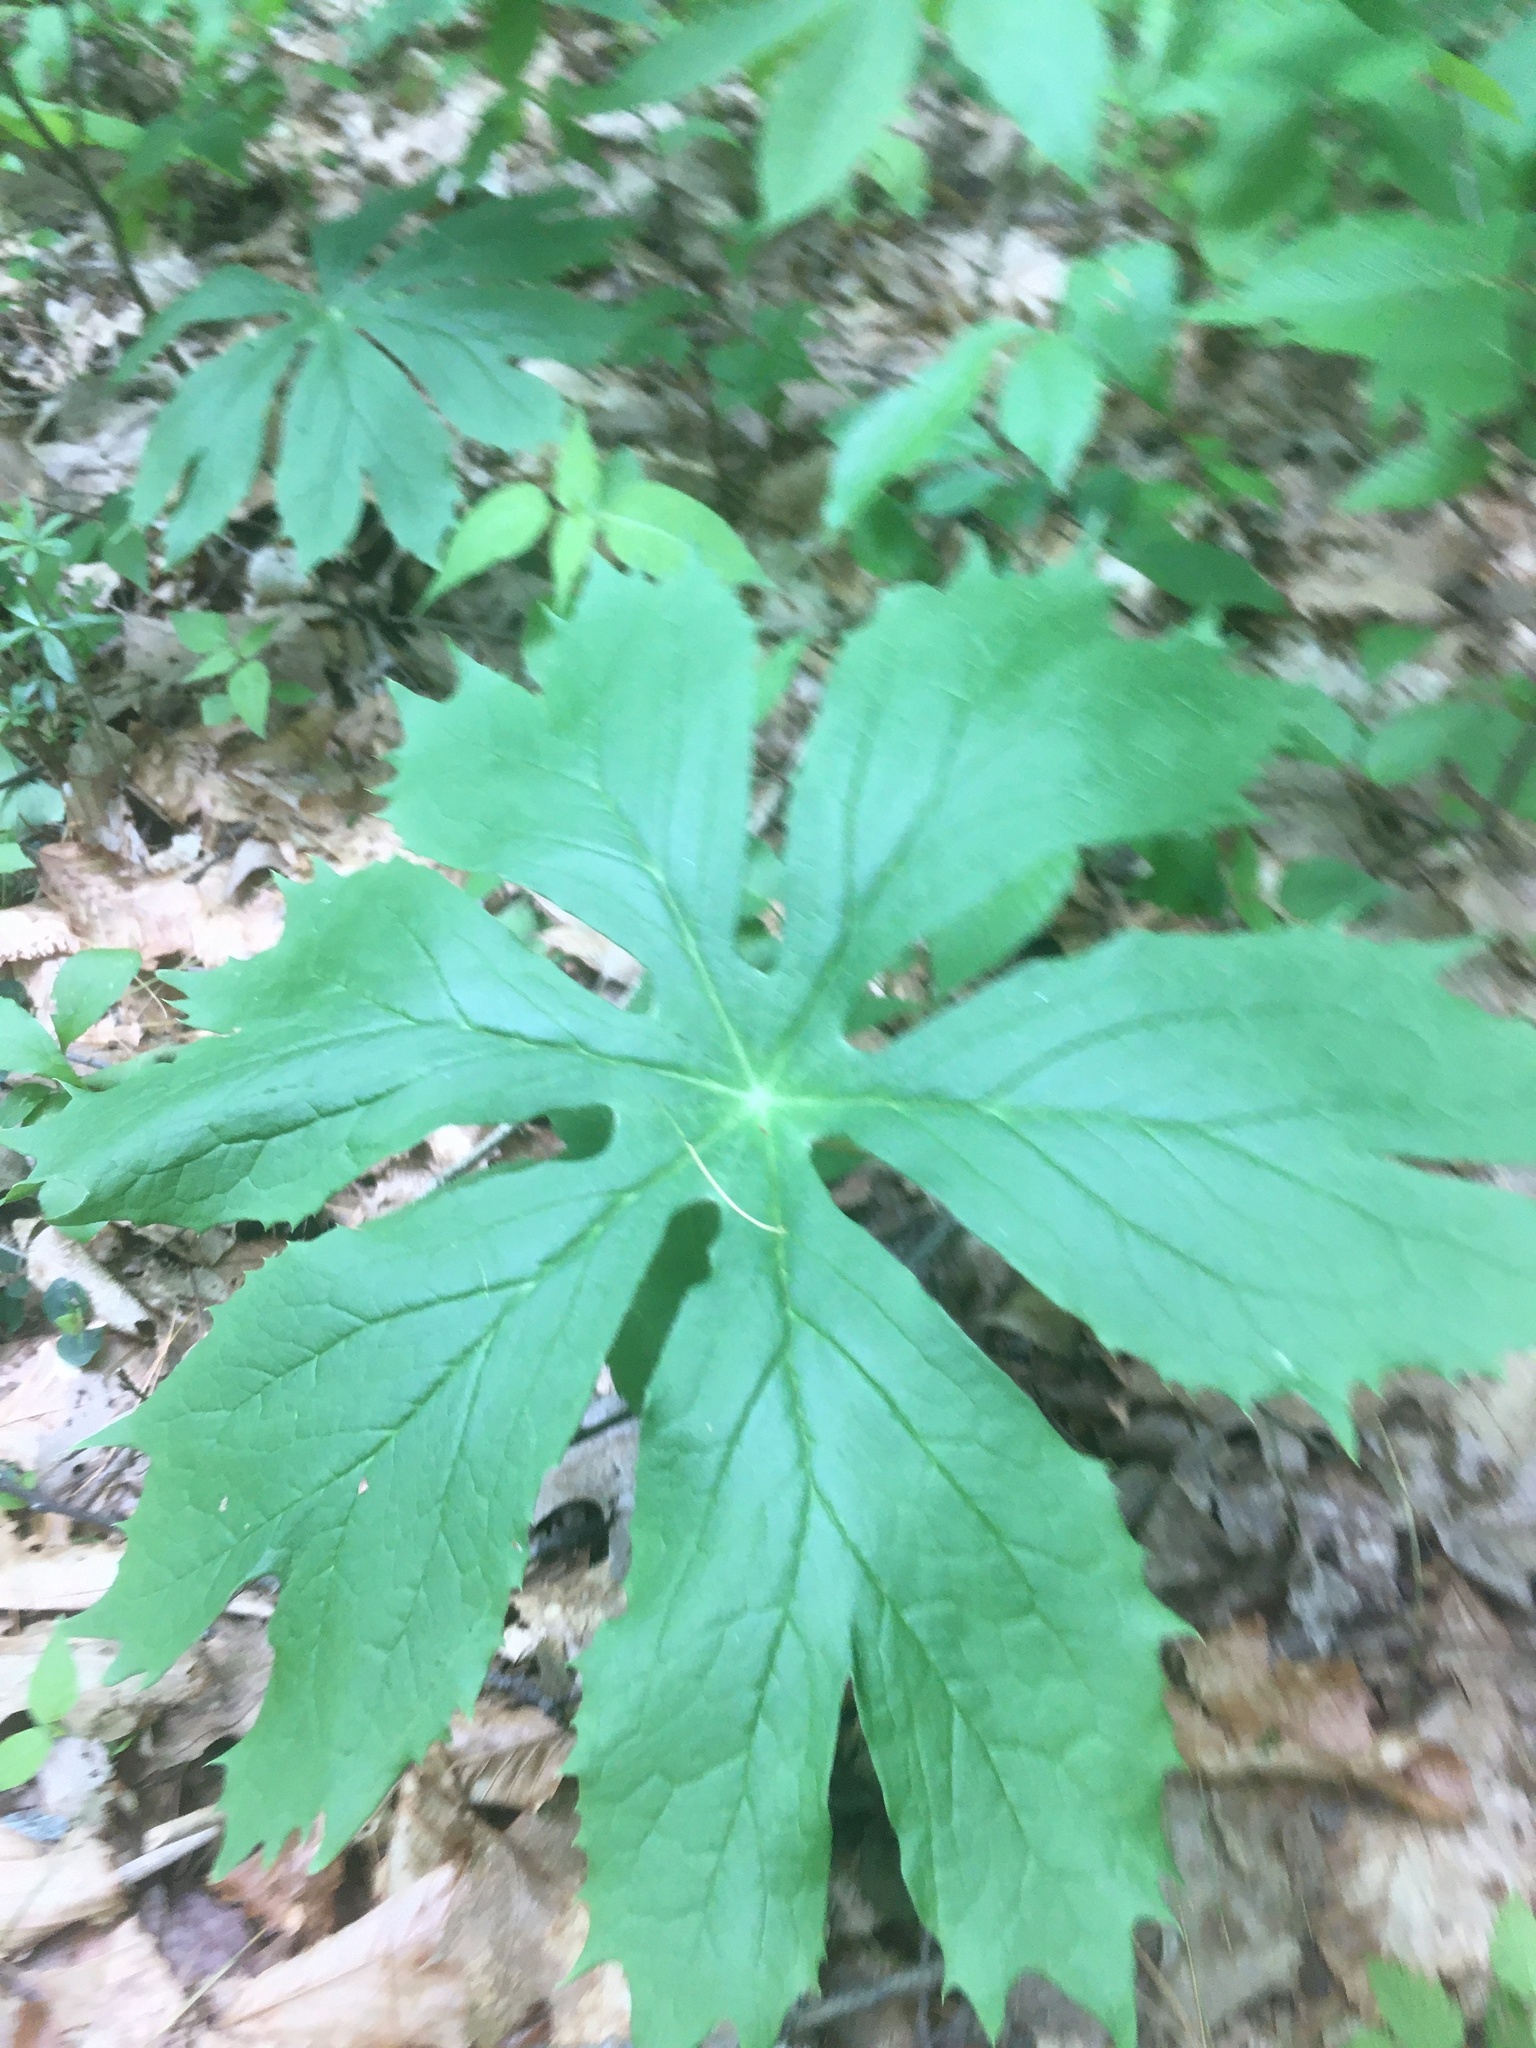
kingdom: Plantae
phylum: Tracheophyta
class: Magnoliopsida
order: Ranunculales
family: Berberidaceae
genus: Podophyllum
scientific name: Podophyllum peltatum
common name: Wild mandrake
